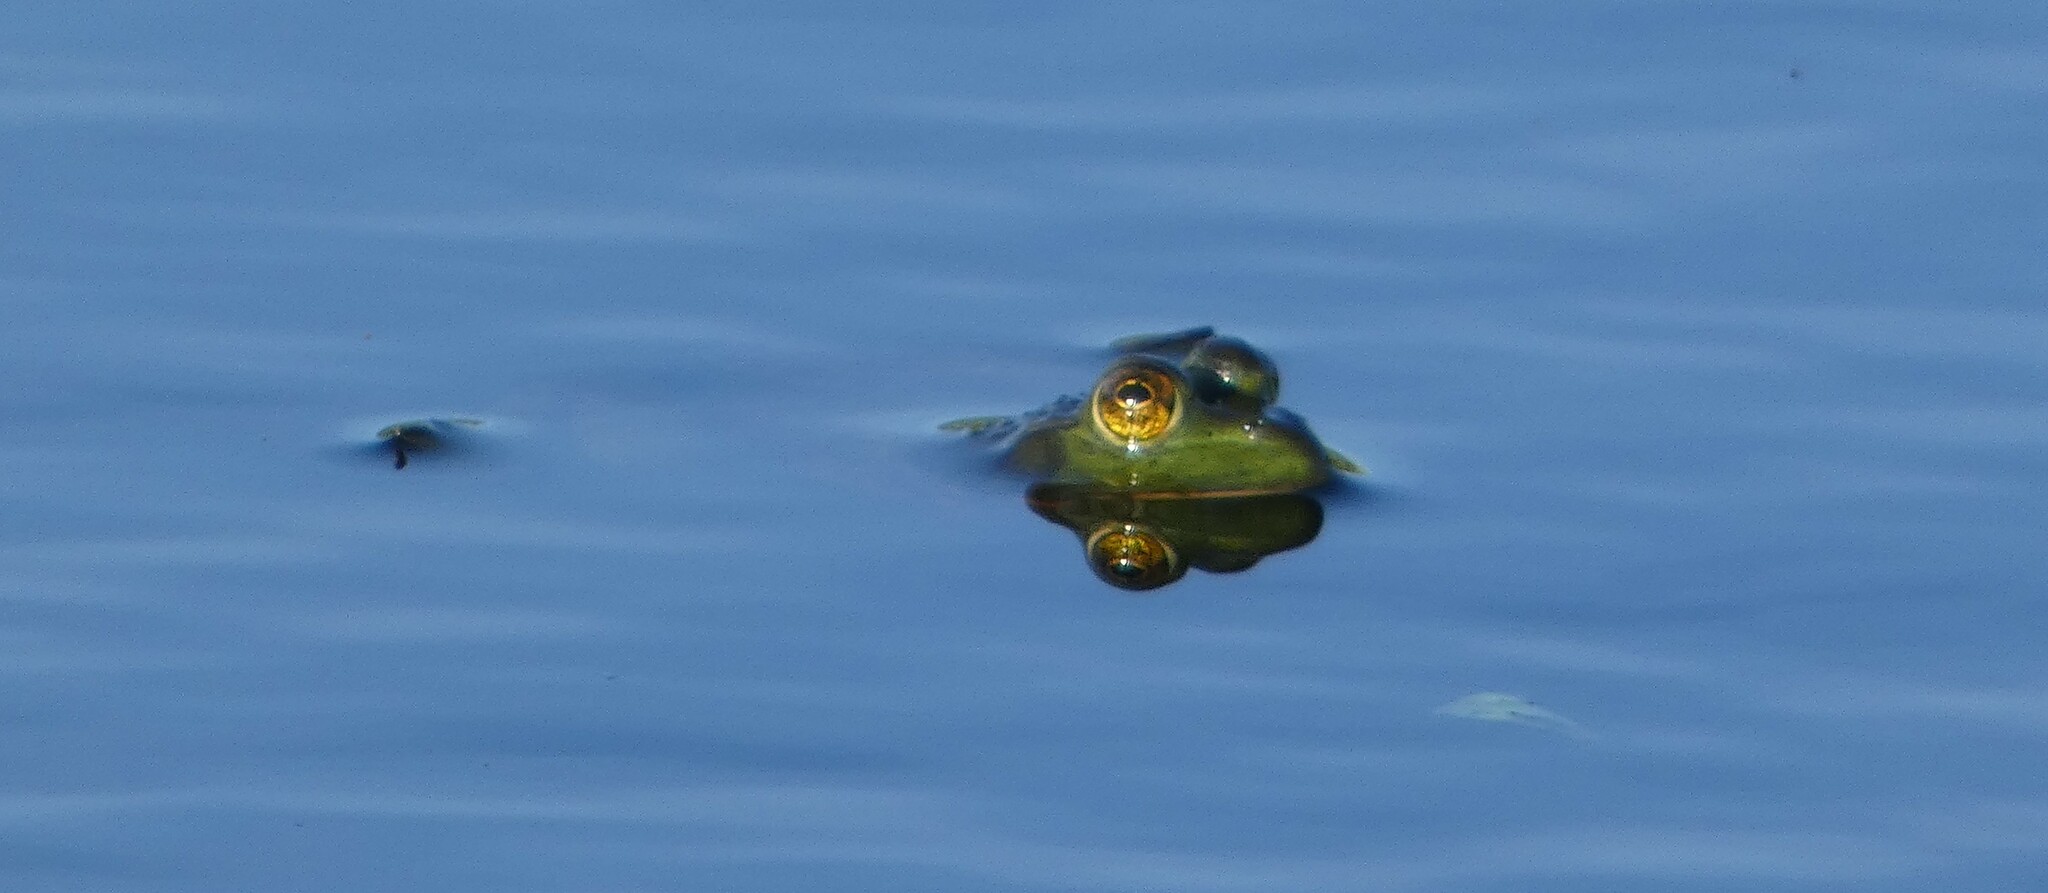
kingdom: Animalia
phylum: Chordata
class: Amphibia
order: Anura
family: Ranidae
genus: Lithobates
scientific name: Lithobates catesbeianus
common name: American bullfrog
